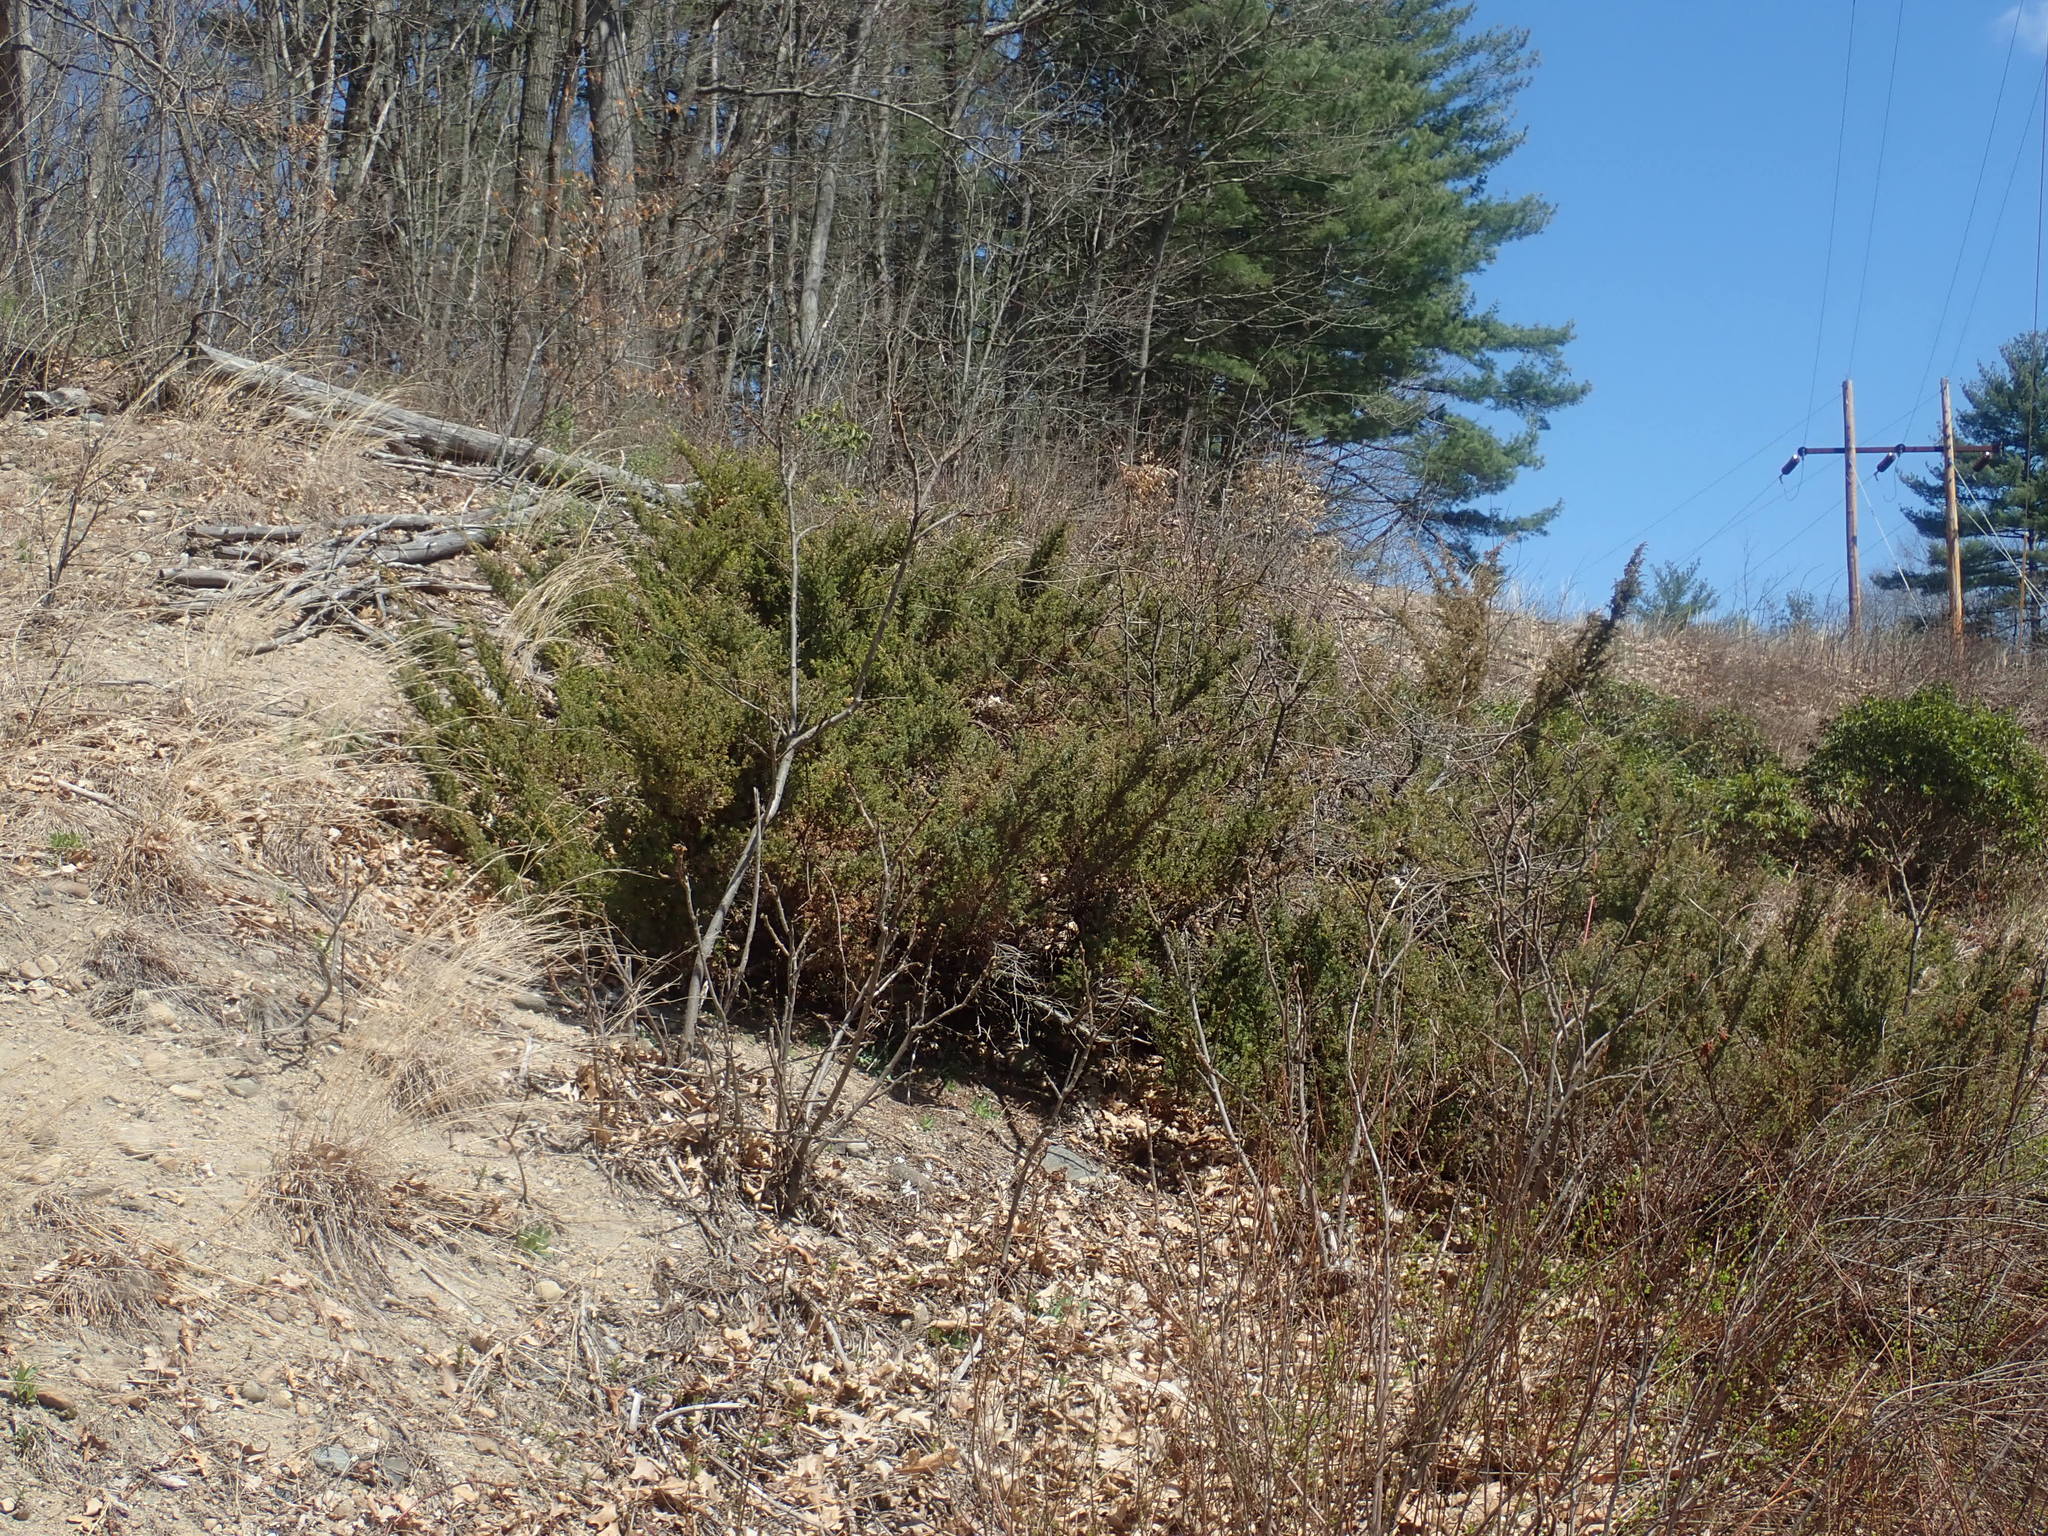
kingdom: Plantae
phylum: Tracheophyta
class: Pinopsida
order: Pinales
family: Cupressaceae
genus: Juniperus
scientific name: Juniperus communis
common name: Common juniper
